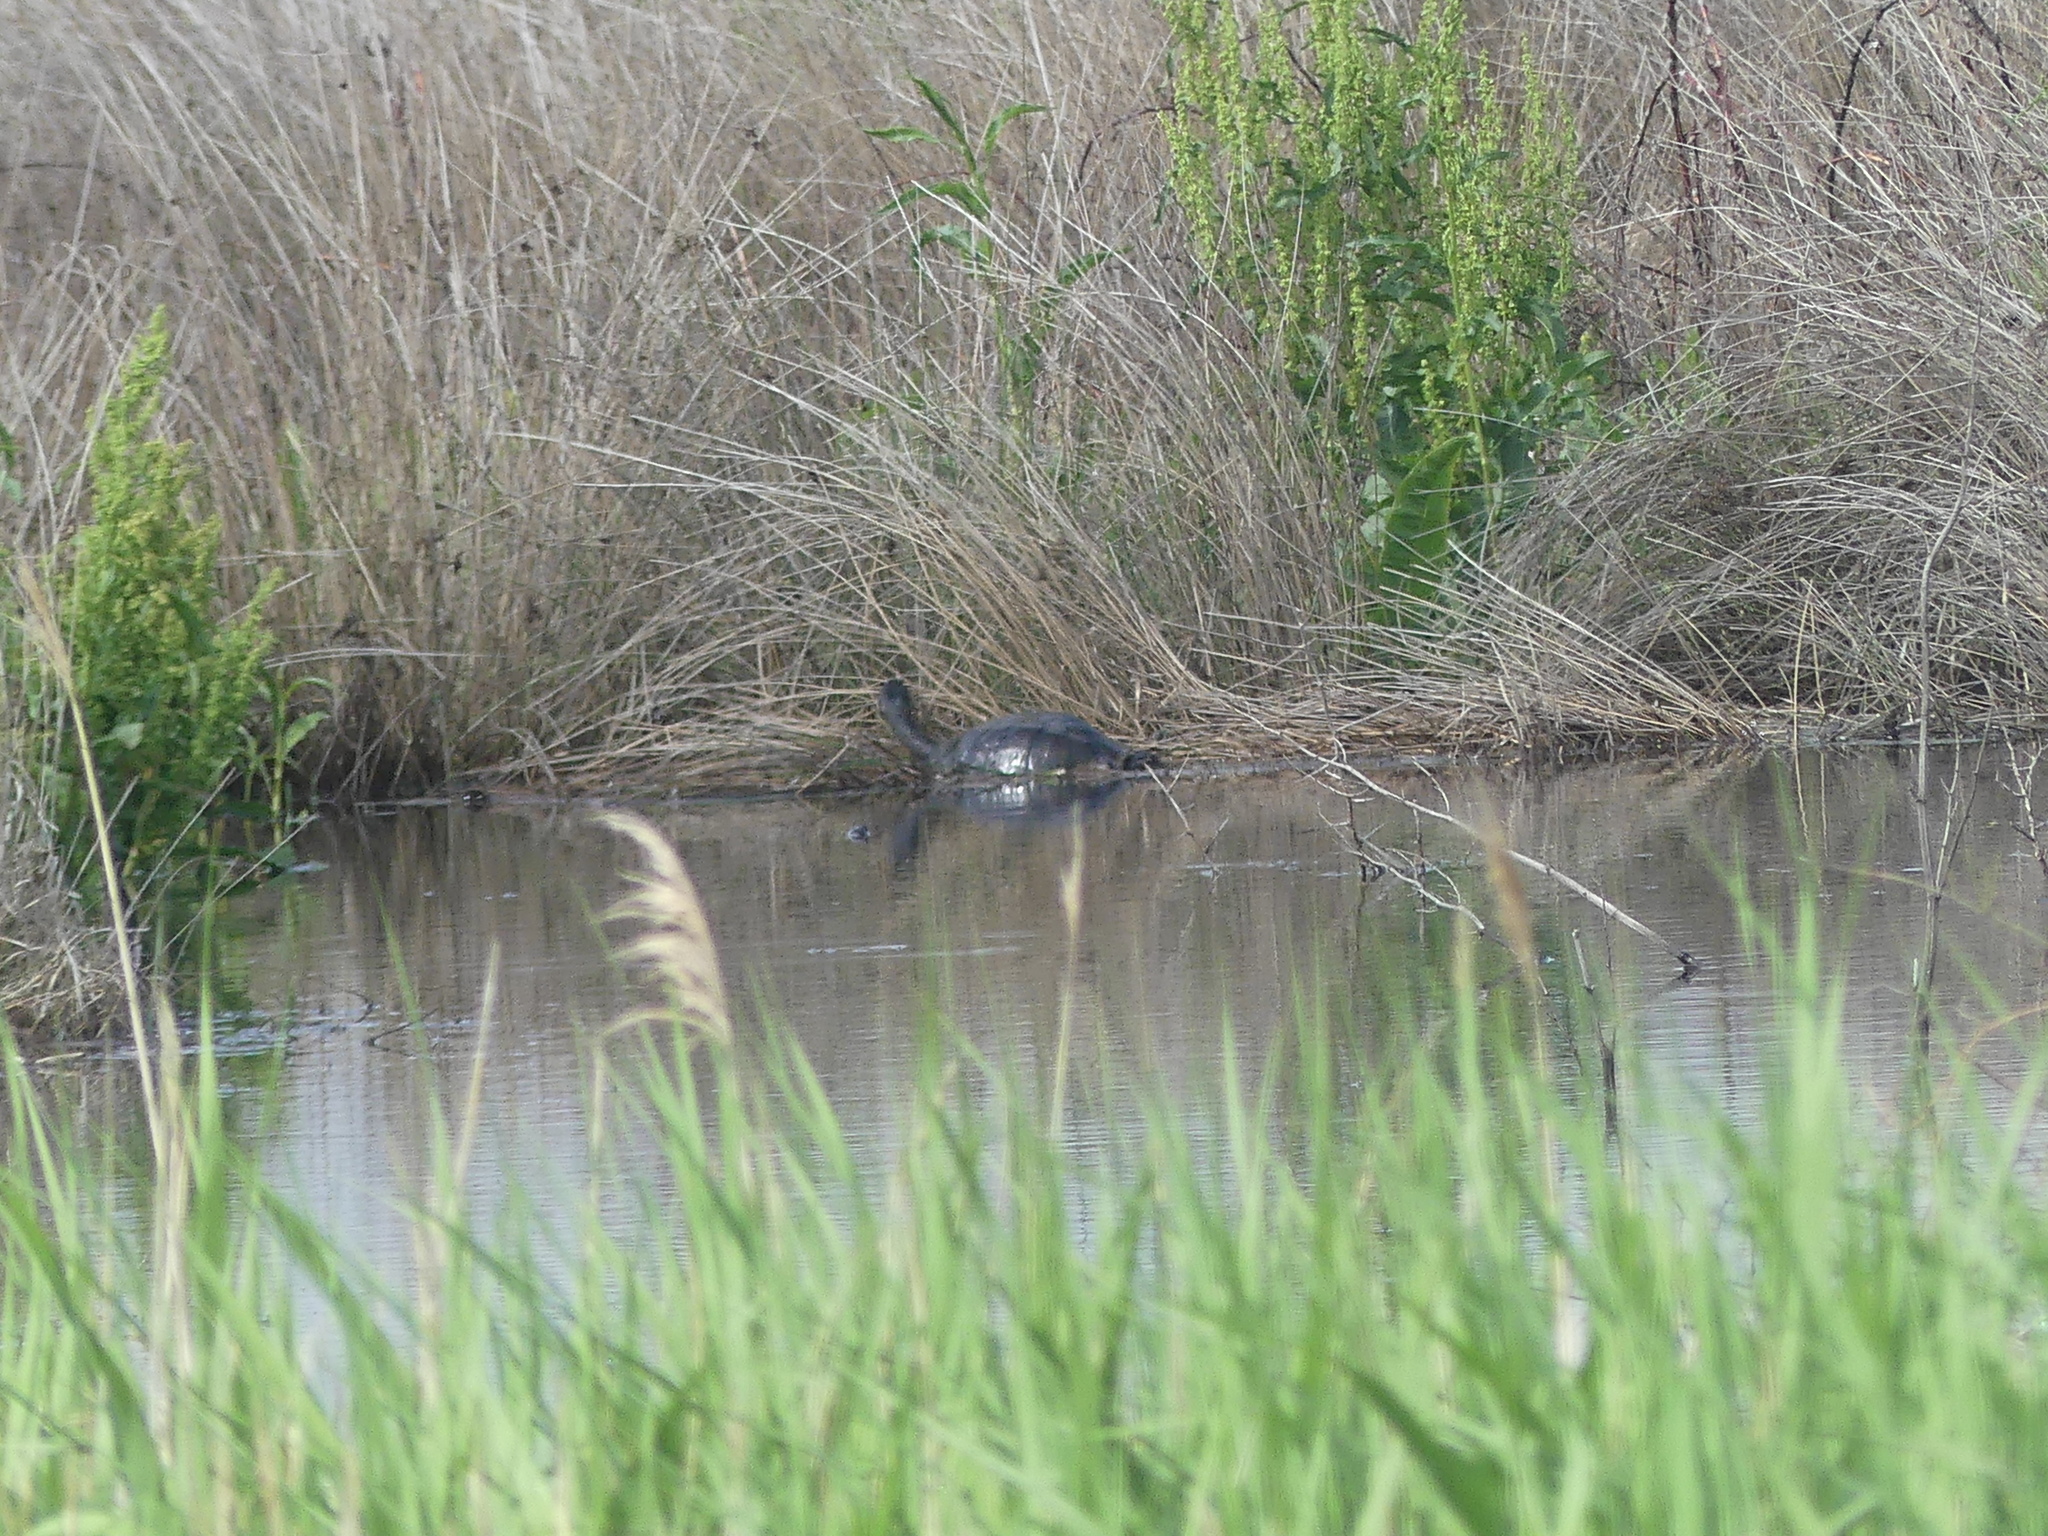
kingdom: Animalia
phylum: Chordata
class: Testudines
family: Chelidae
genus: Chelodina
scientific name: Chelodina longicollis
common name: Eastern snake-necked turtle
